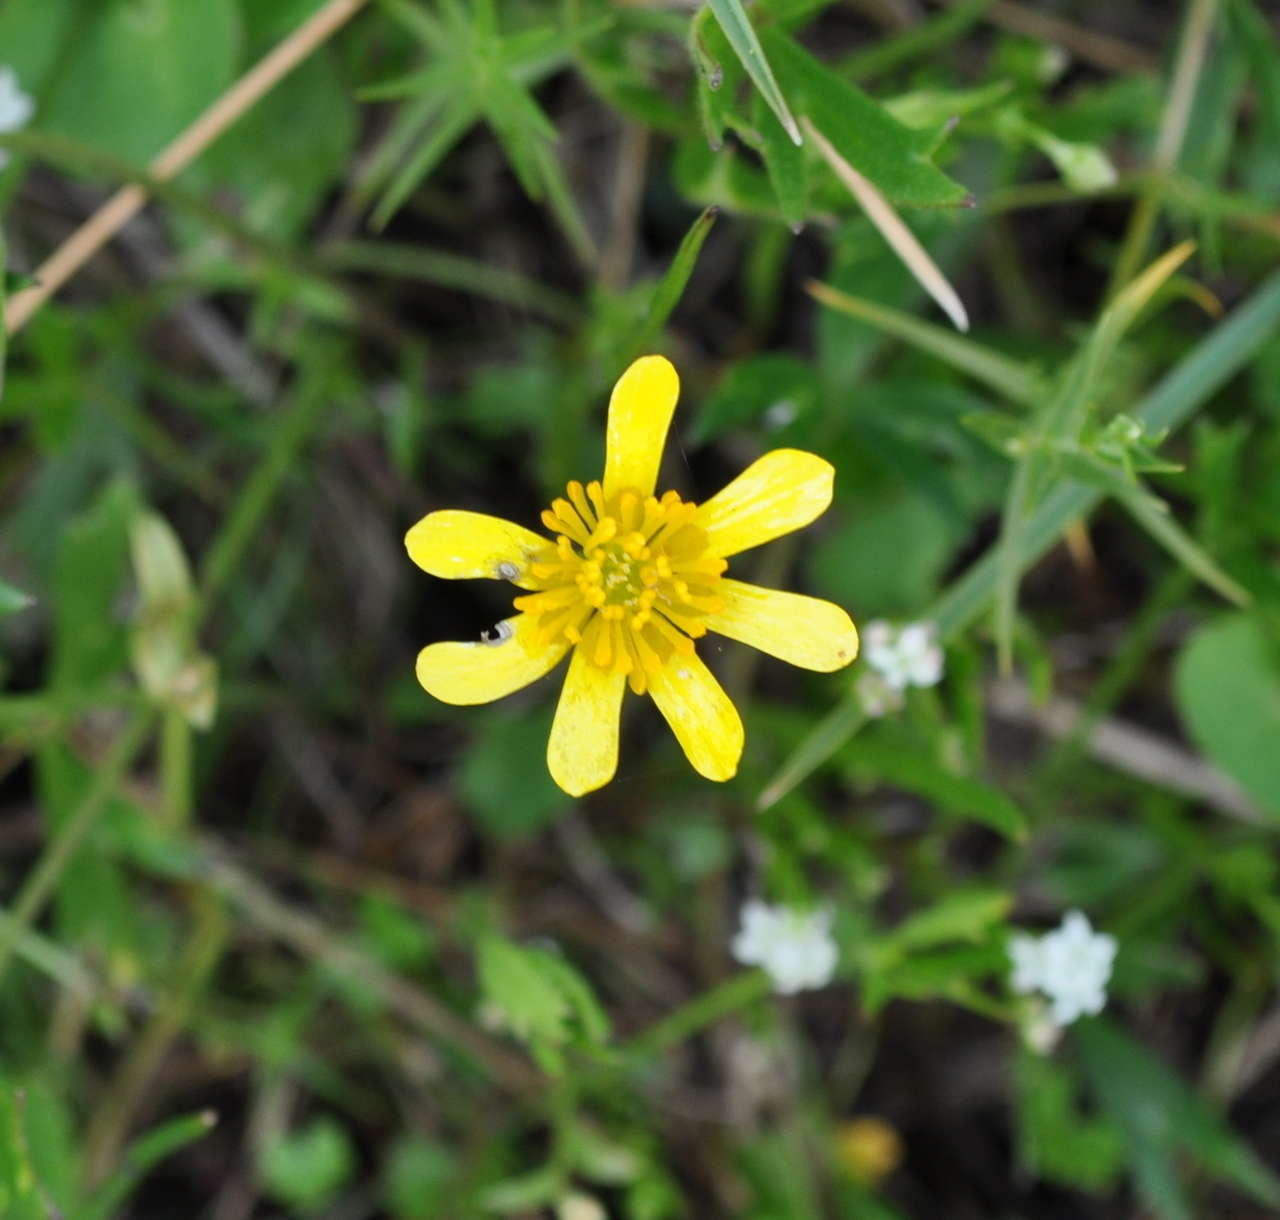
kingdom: Plantae
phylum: Tracheophyta
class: Magnoliopsida
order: Ranunculales
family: Ranunculaceae
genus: Ranunculus
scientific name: Ranunculus amplus
